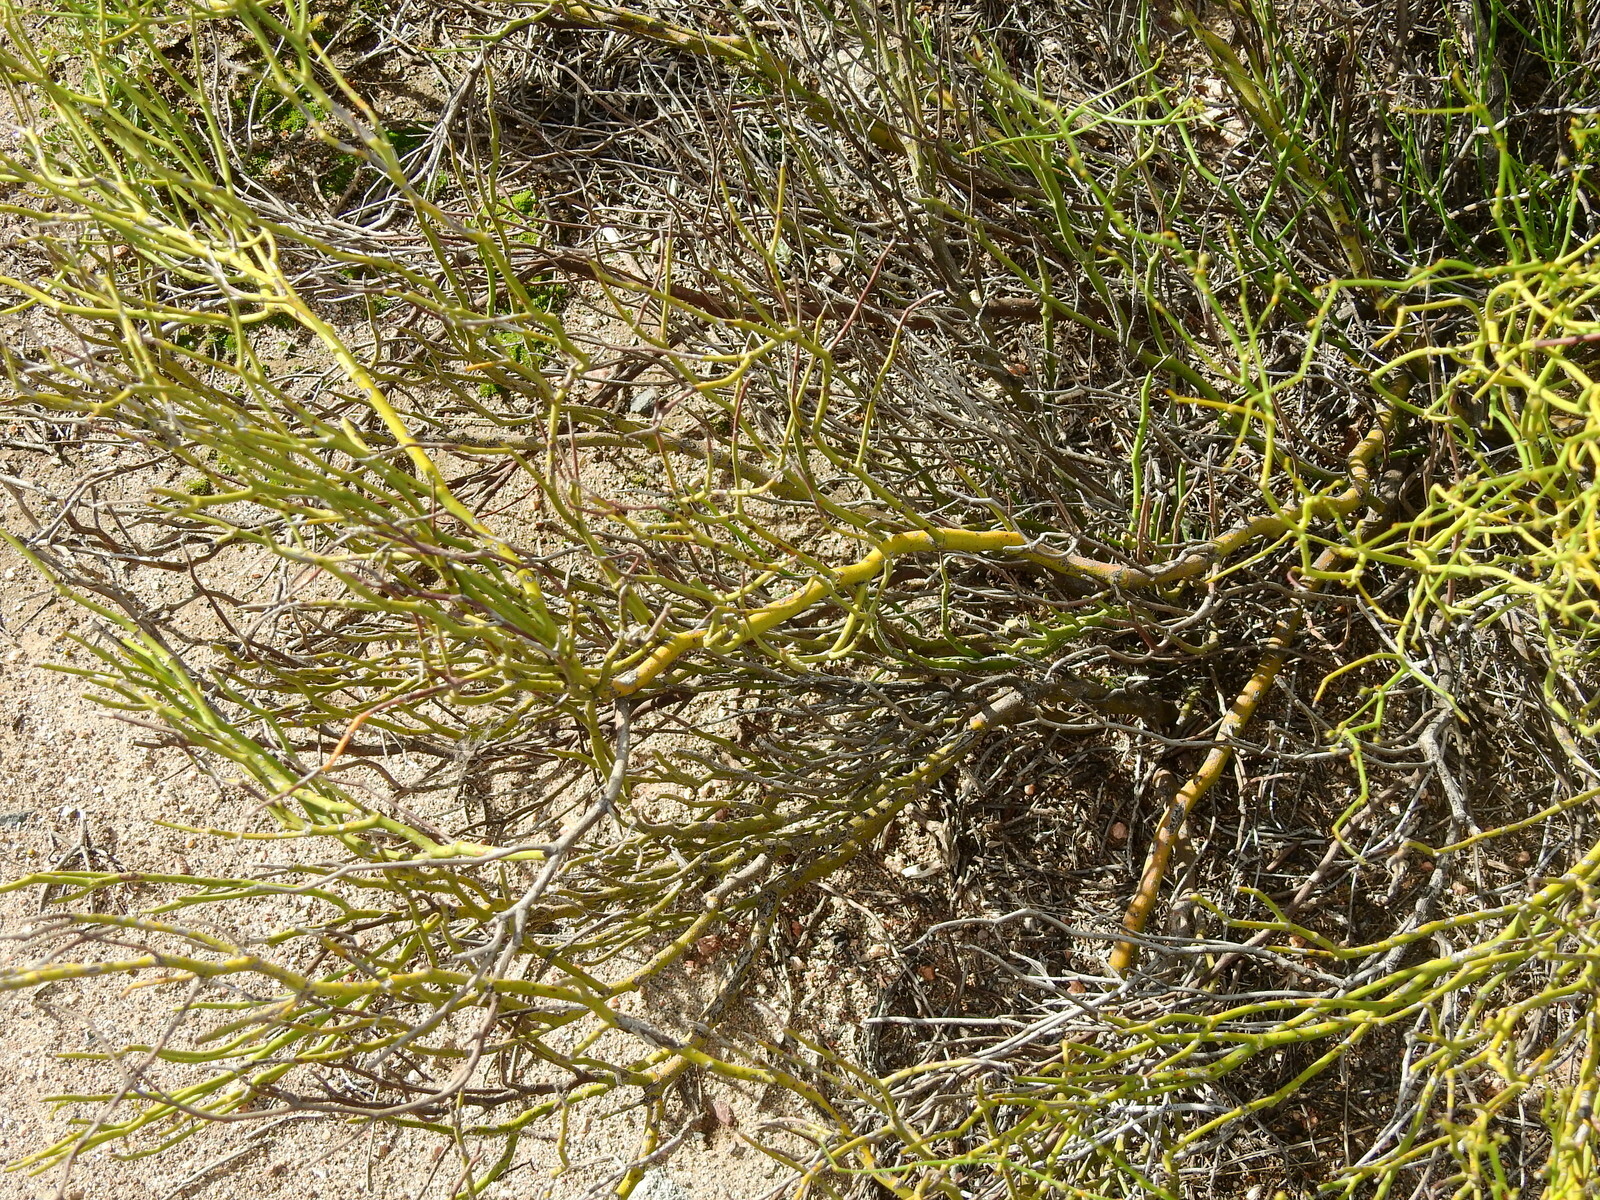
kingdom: Plantae
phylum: Tracheophyta
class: Magnoliopsida
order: Fabales
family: Fabaceae
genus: Senna
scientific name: Senna pachyrrhiza
